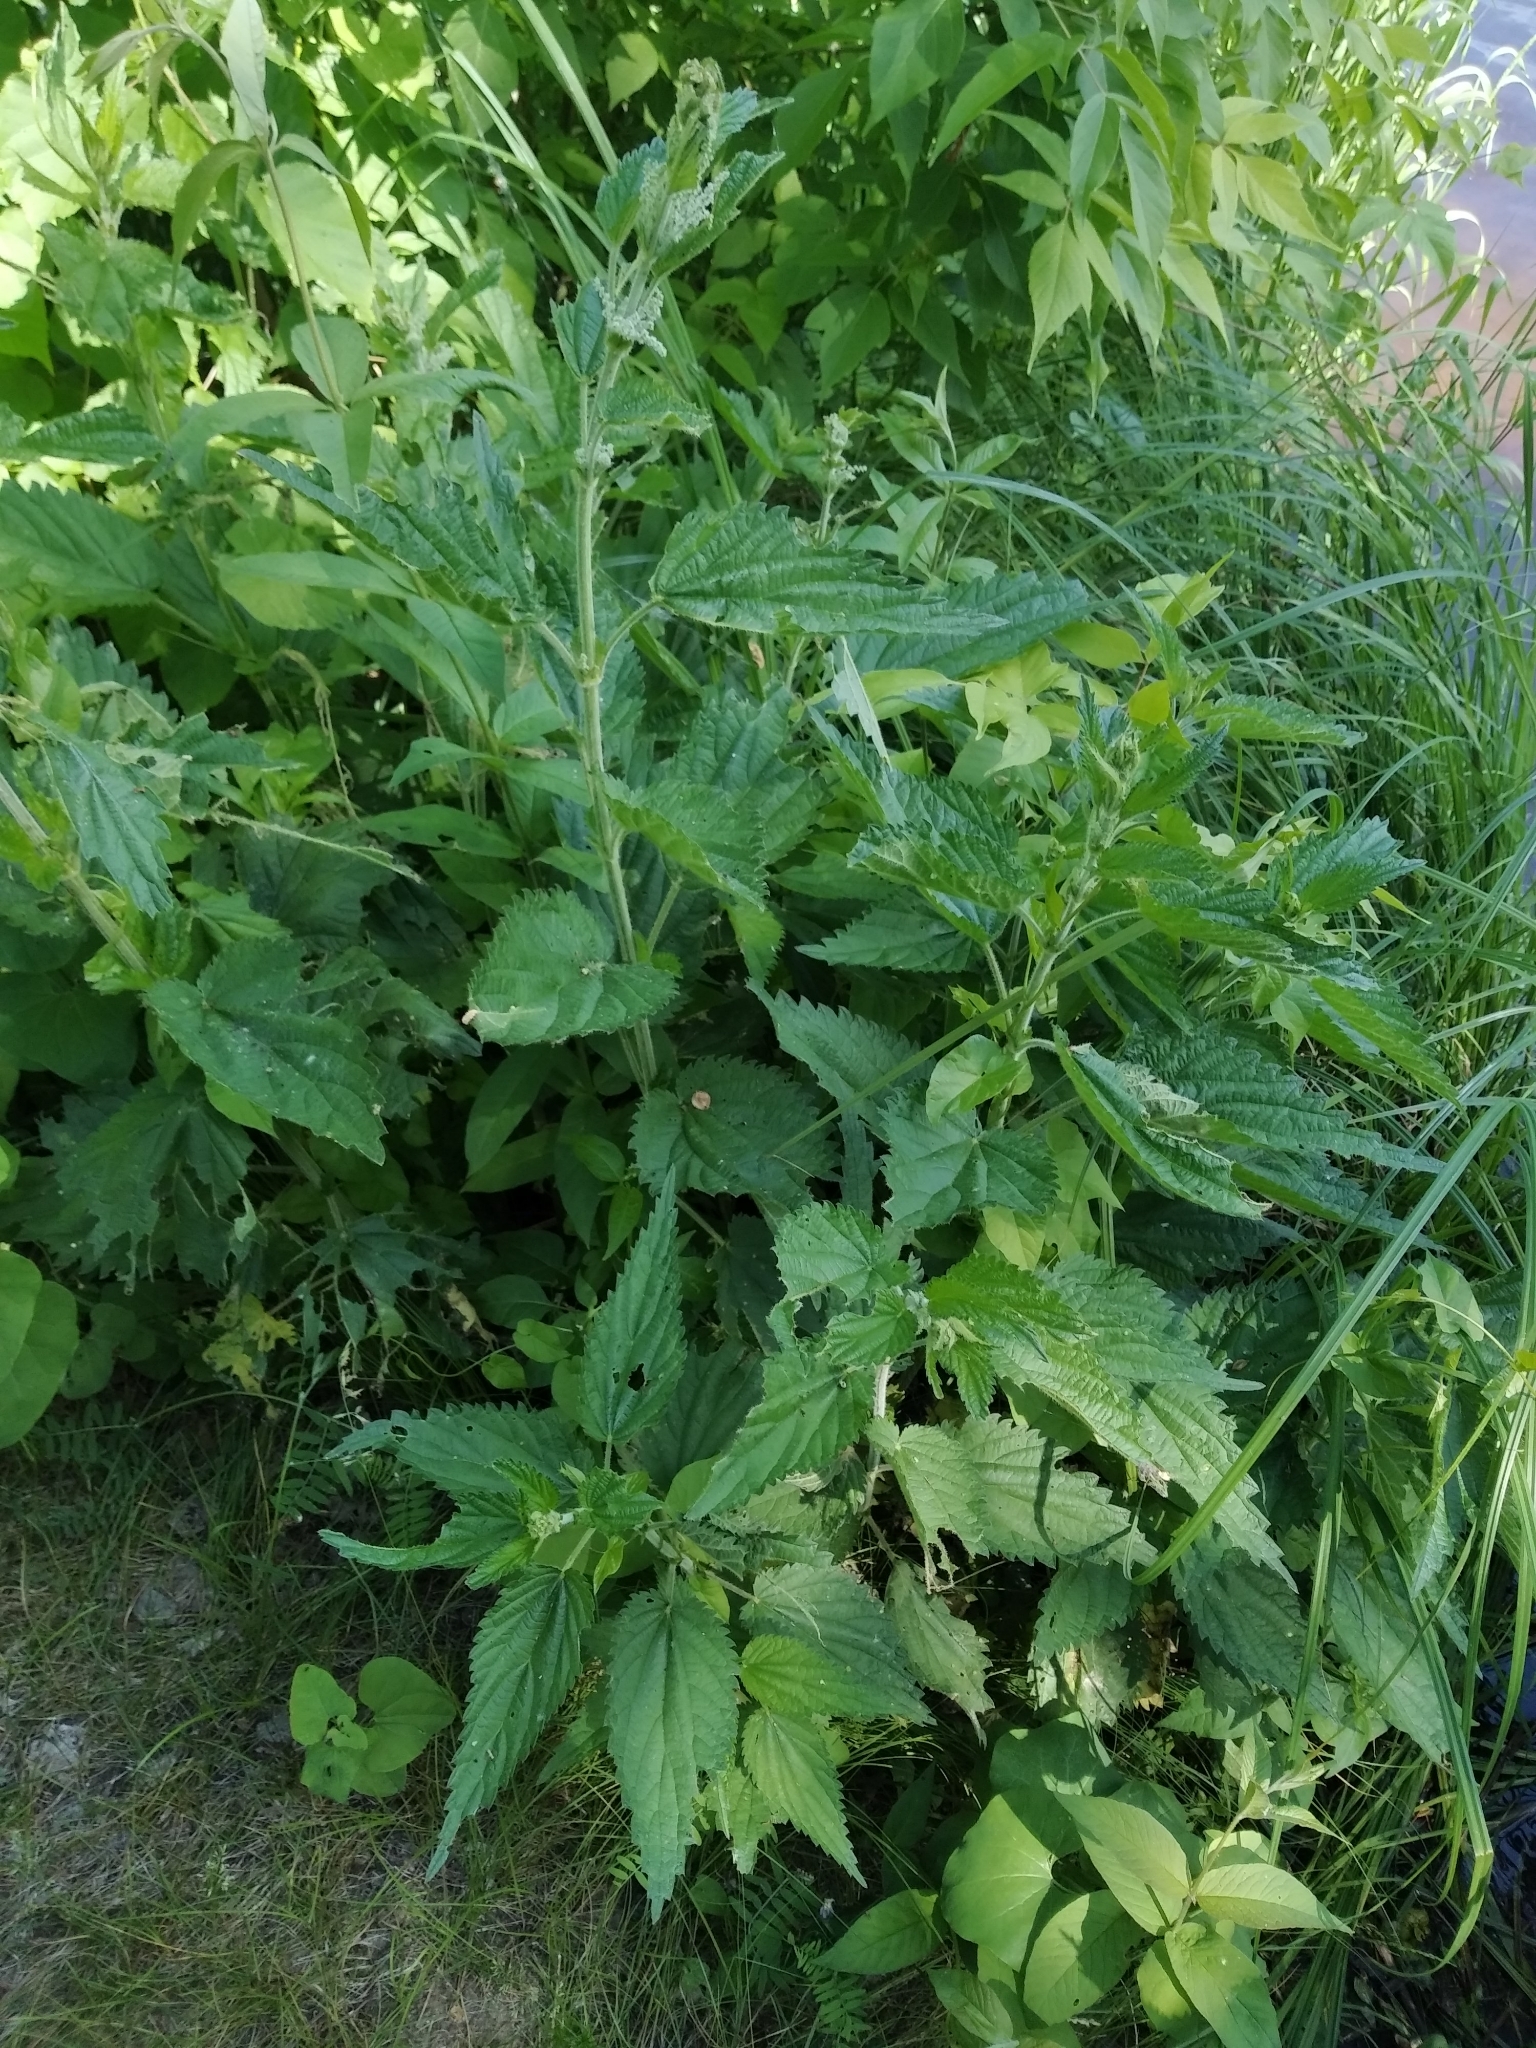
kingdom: Plantae
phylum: Tracheophyta
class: Magnoliopsida
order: Rosales
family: Urticaceae
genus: Urtica
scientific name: Urtica dioica
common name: Common nettle
